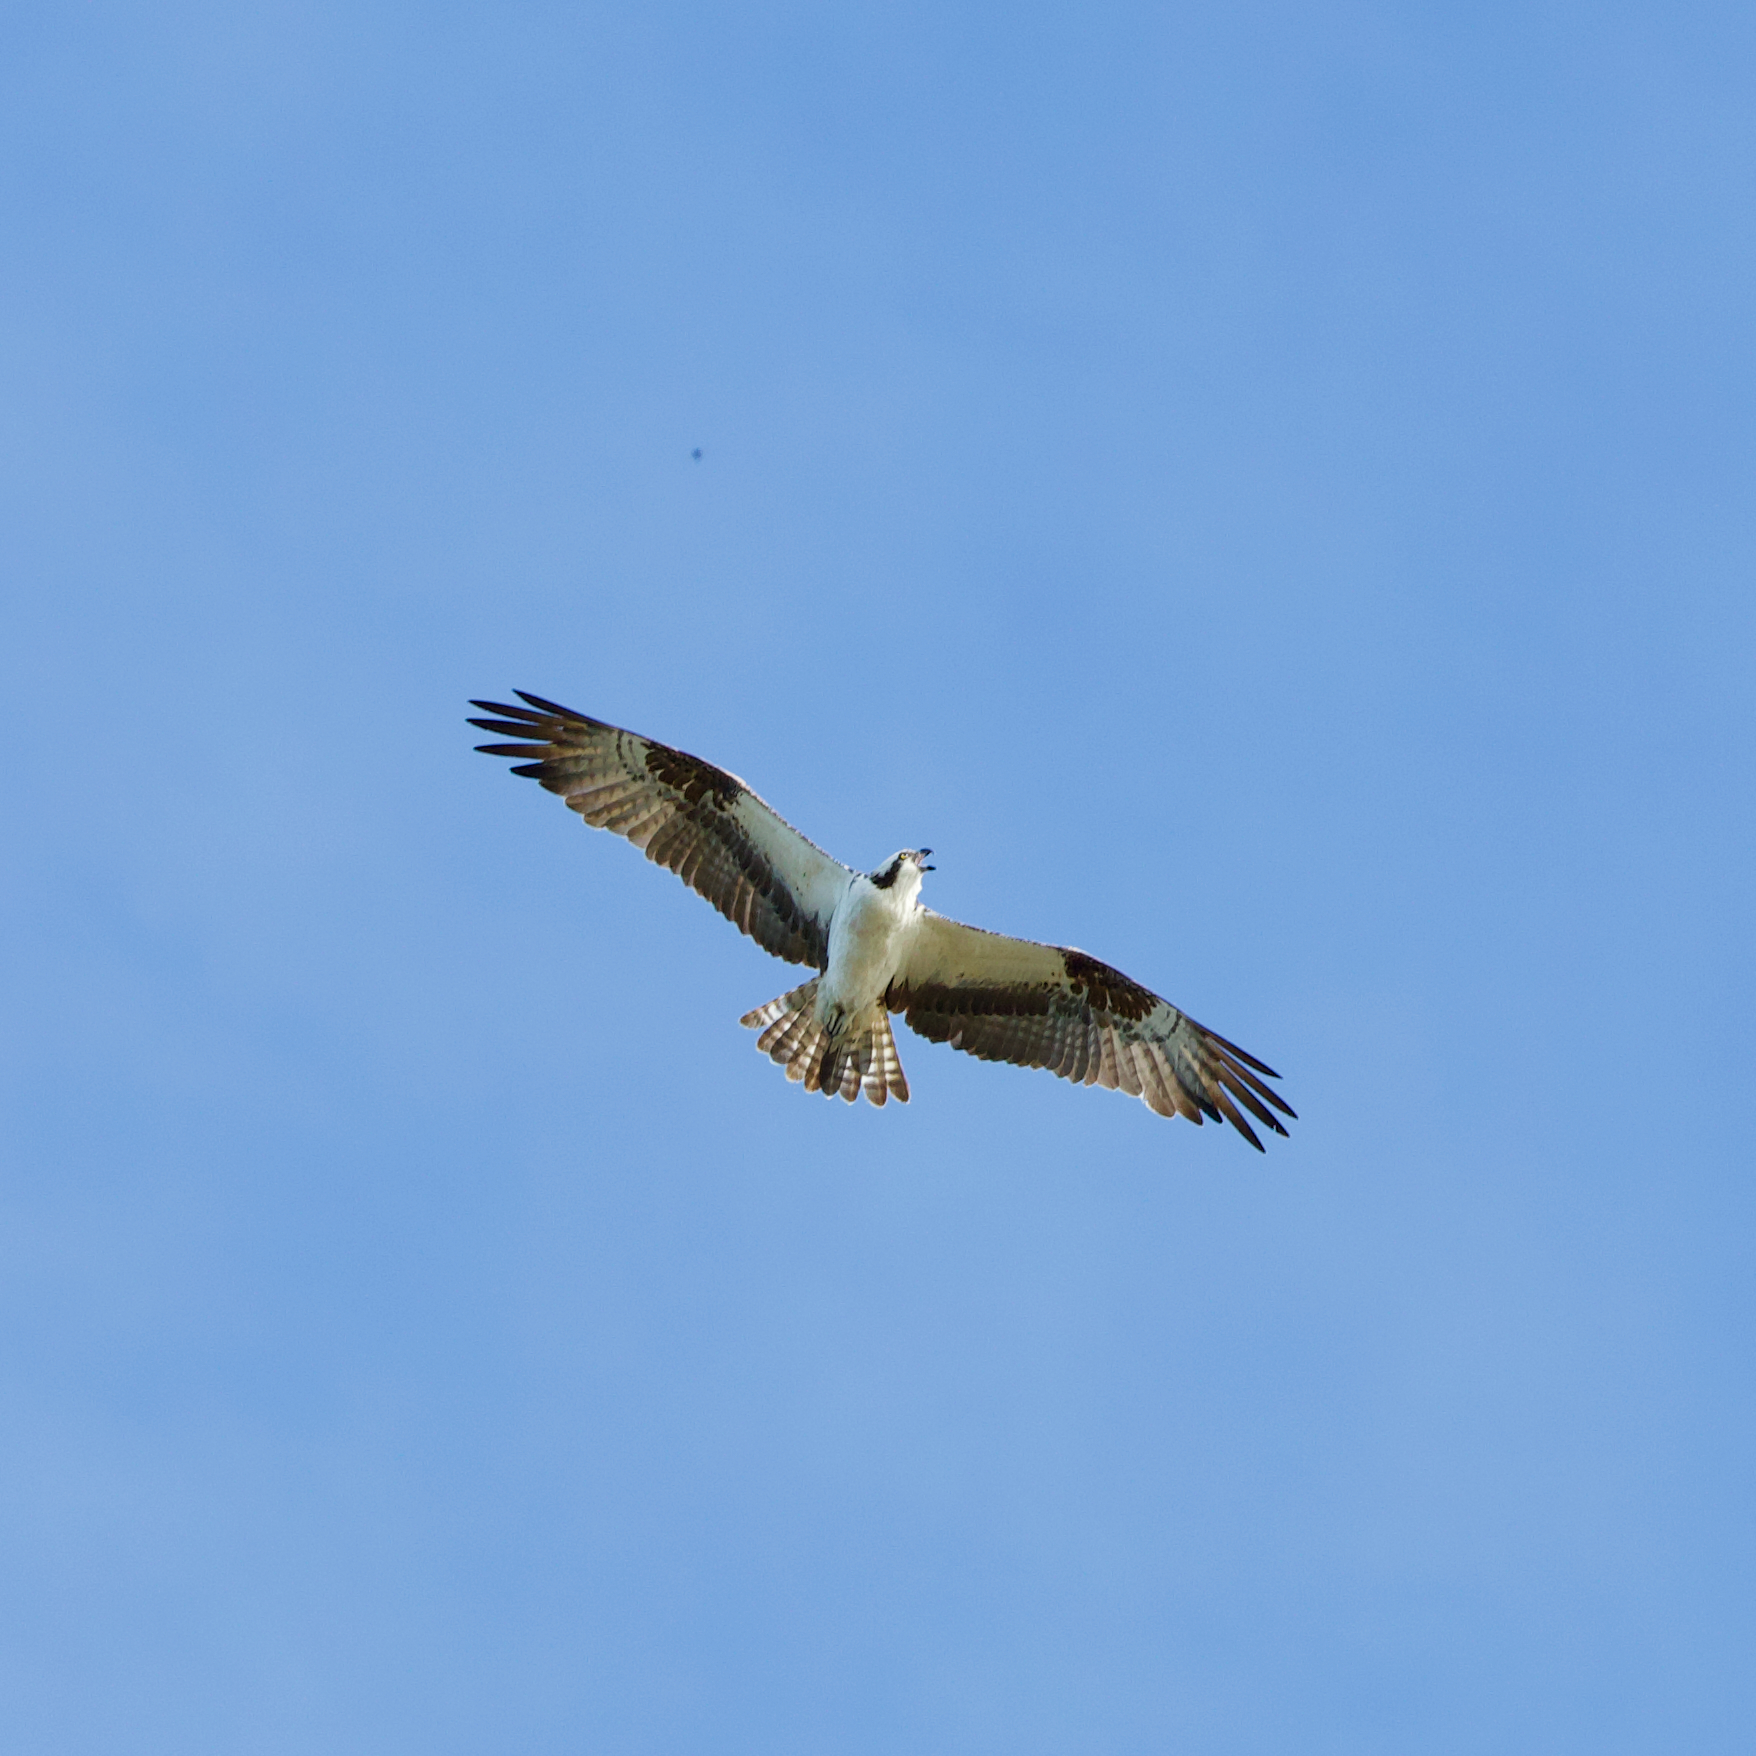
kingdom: Animalia
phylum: Chordata
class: Aves
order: Accipitriformes
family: Pandionidae
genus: Pandion
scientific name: Pandion haliaetus
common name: Osprey
